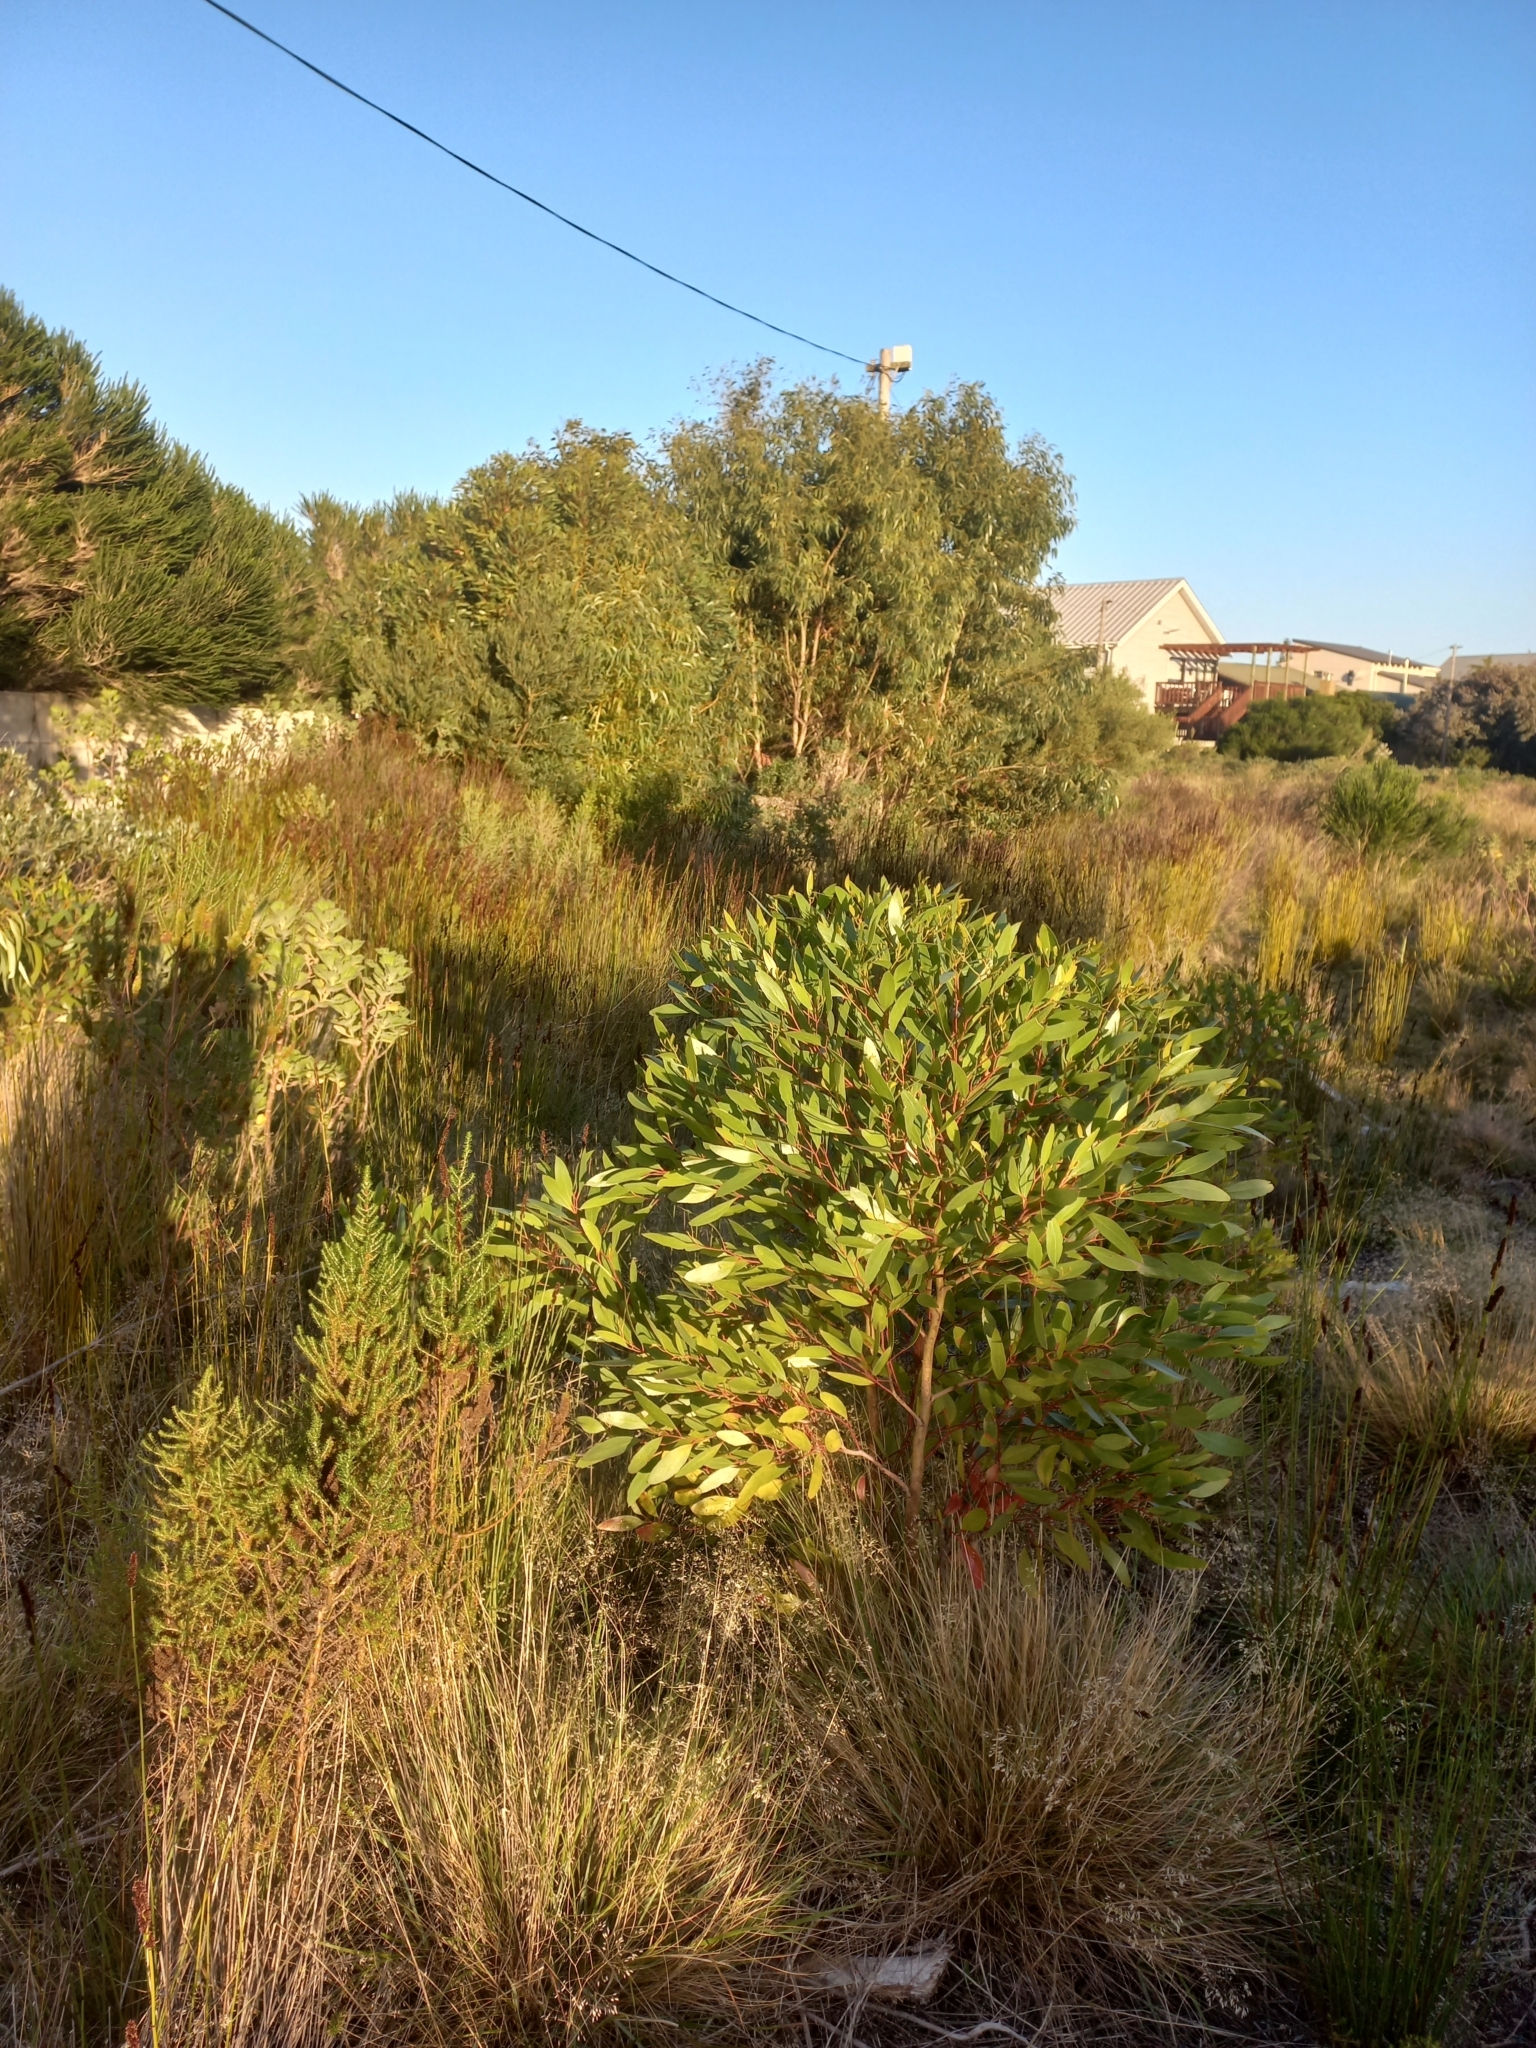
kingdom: Plantae
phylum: Tracheophyta
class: Magnoliopsida
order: Myrtales
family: Myrtaceae
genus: Eucalyptus
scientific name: Eucalyptus conferruminata
